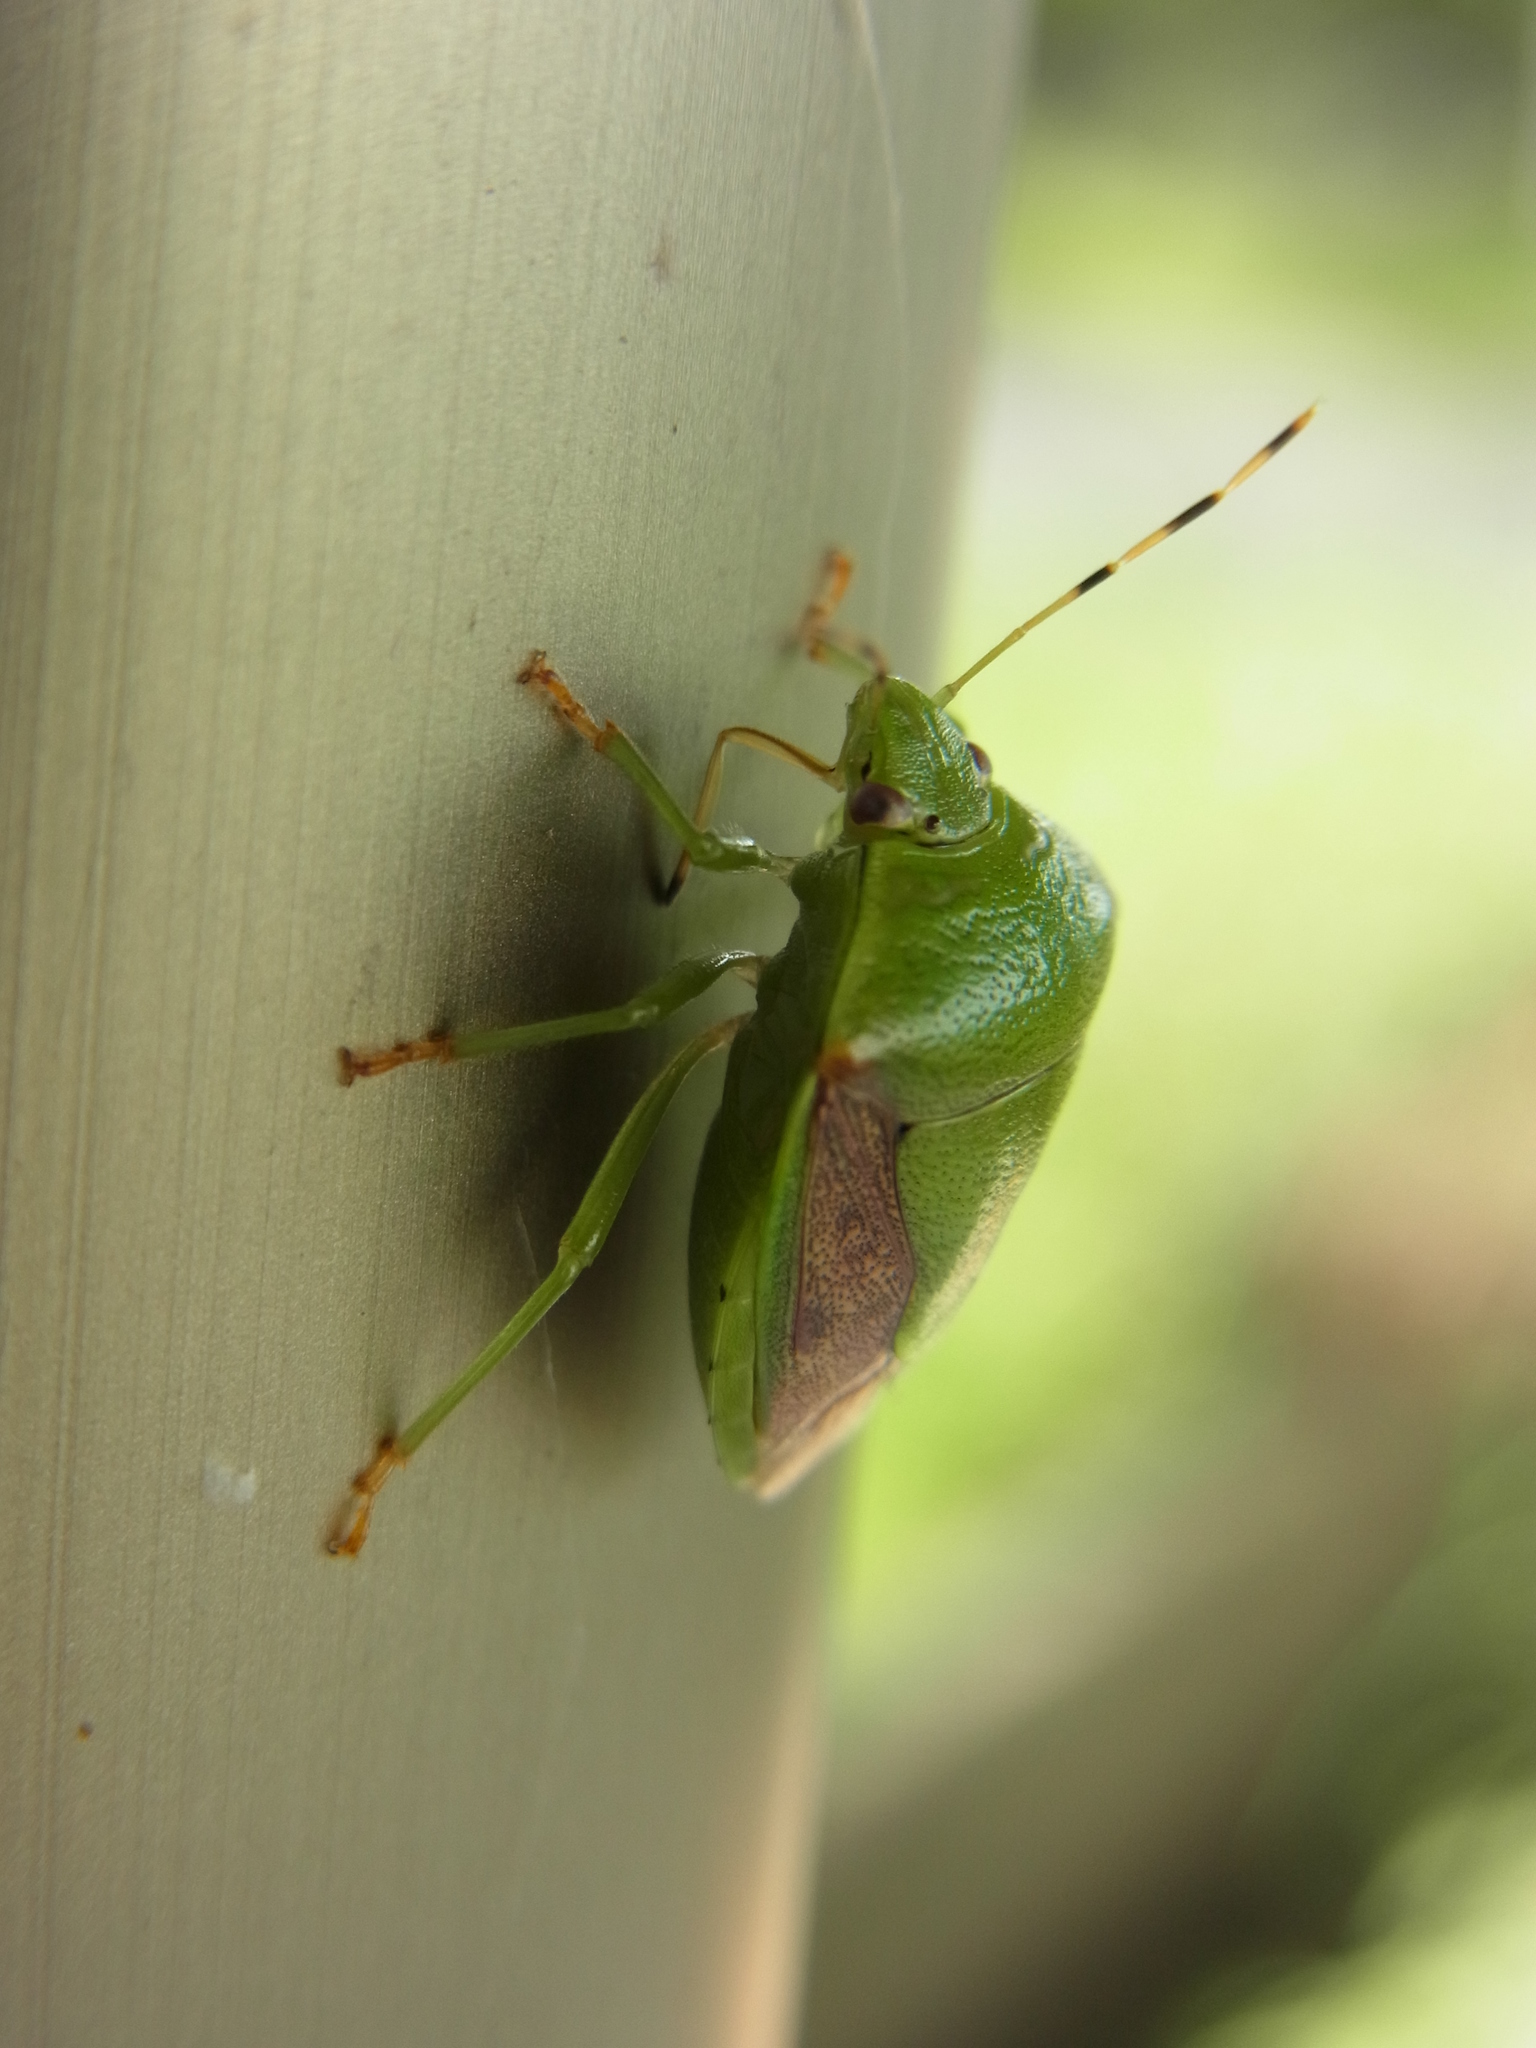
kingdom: Animalia
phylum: Arthropoda
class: Insecta
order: Hemiptera
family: Pentatomidae
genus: Plautia
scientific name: Plautia stali
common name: Stink bug
